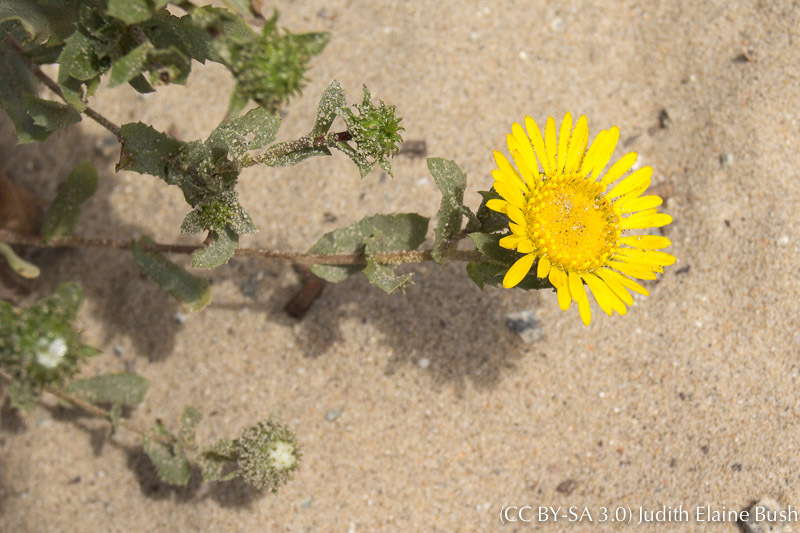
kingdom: Plantae
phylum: Tracheophyta
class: Magnoliopsida
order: Asterales
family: Asteraceae
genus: Grindelia
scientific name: Grindelia hirsutula
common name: Hairy gumweed
